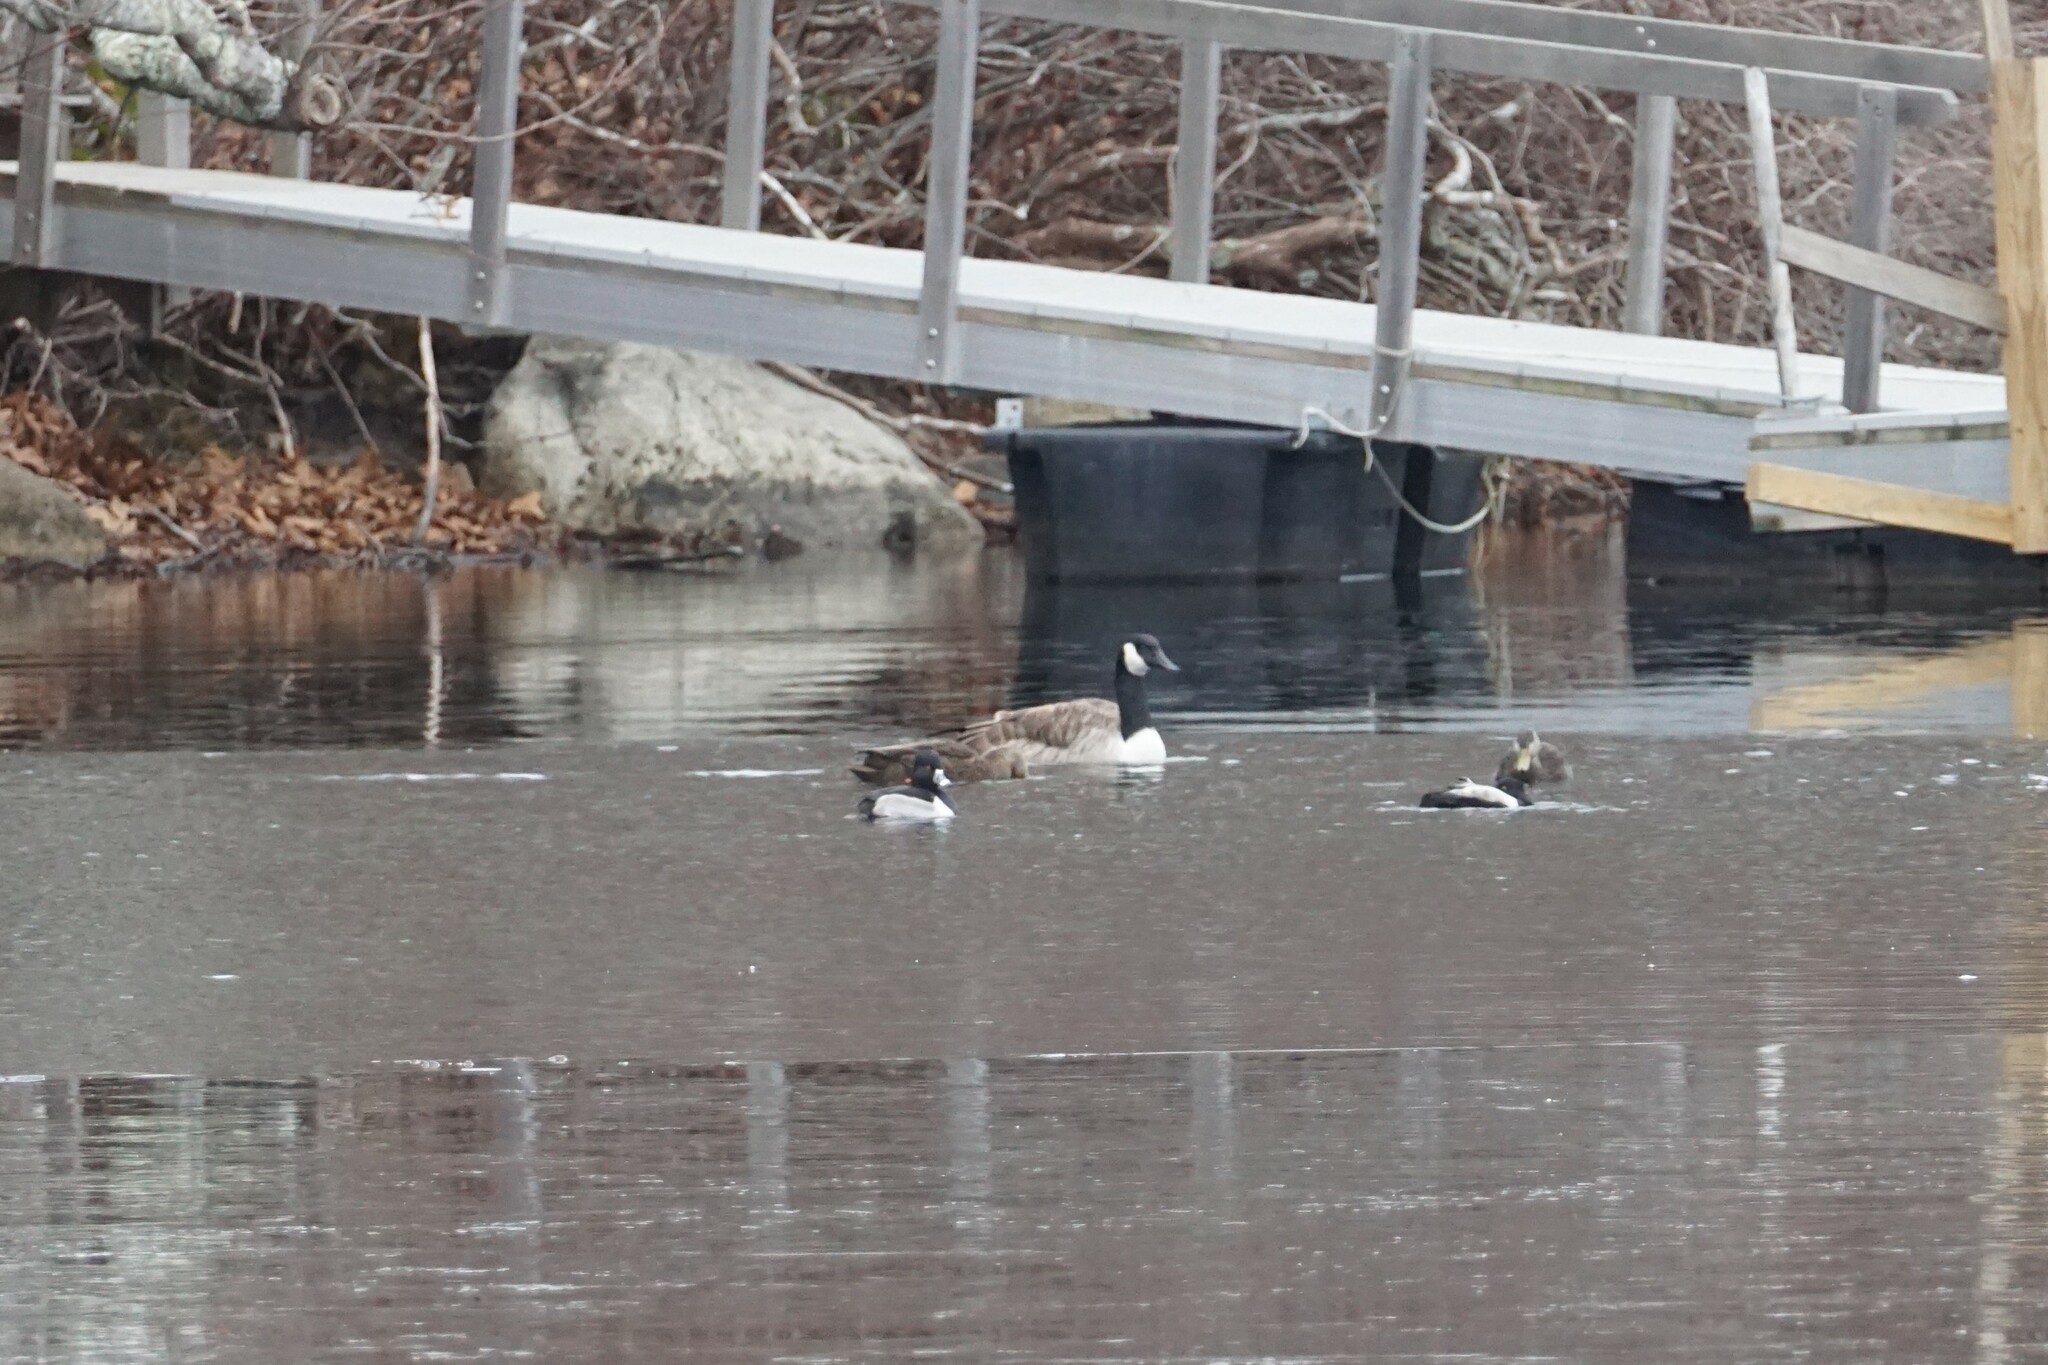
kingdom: Animalia
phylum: Chordata
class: Aves
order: Anseriformes
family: Anatidae
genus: Branta
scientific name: Branta canadensis
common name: Canada goose
